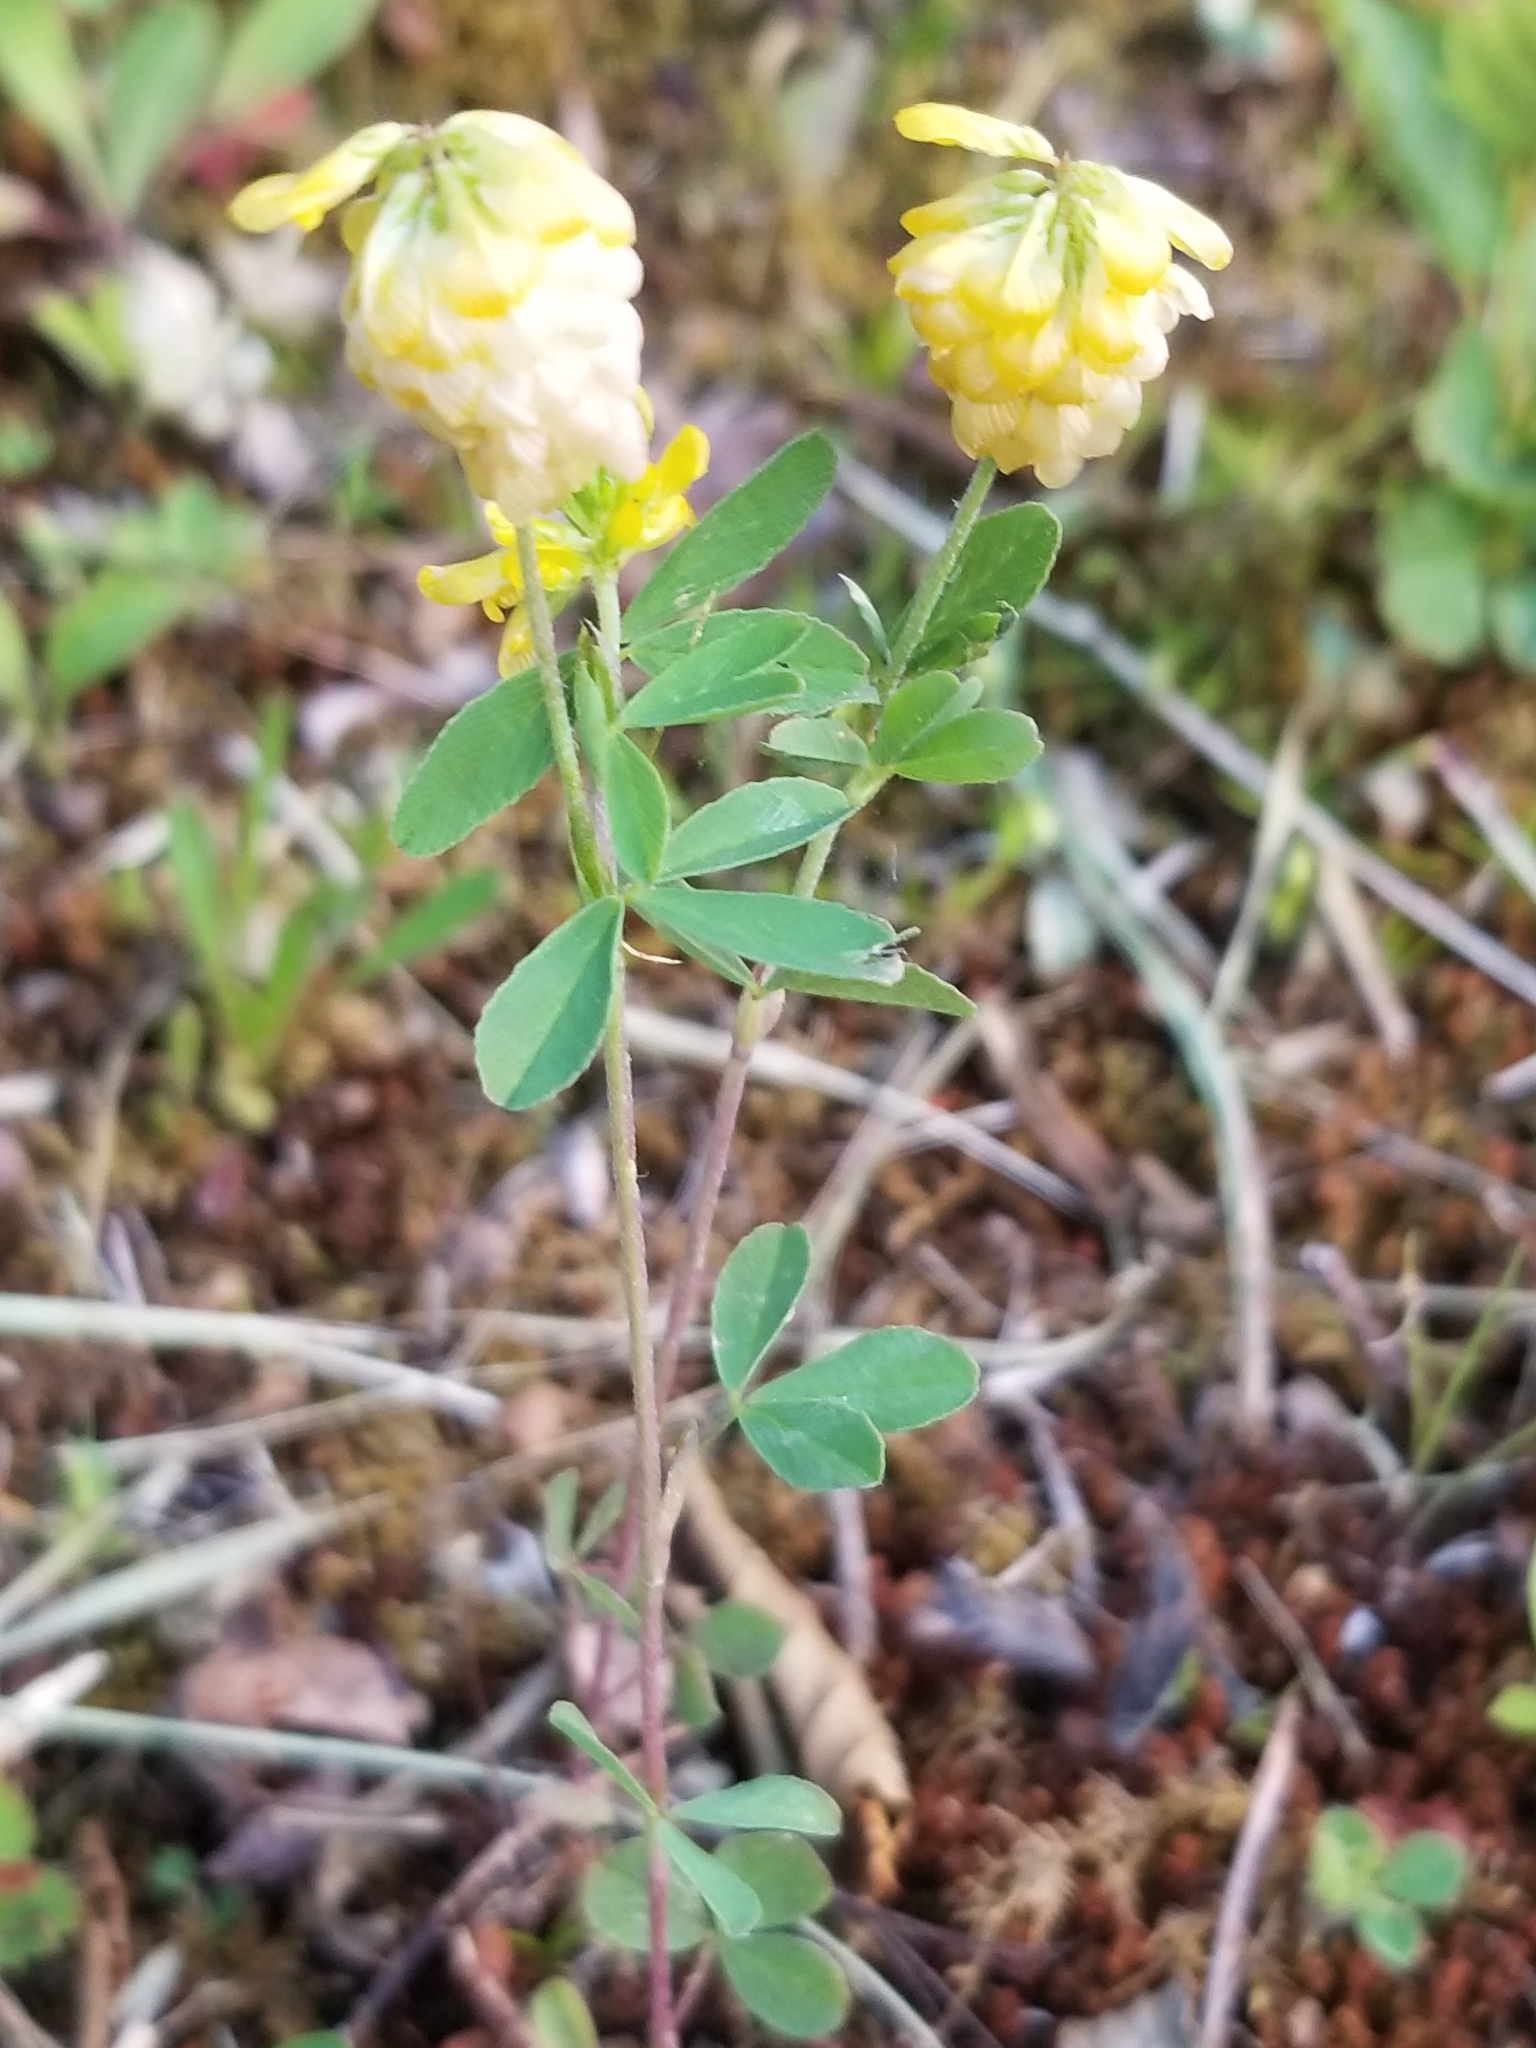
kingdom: Plantae
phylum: Tracheophyta
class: Magnoliopsida
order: Fabales
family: Fabaceae
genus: Trifolium
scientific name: Trifolium aureum
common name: Golden clover
